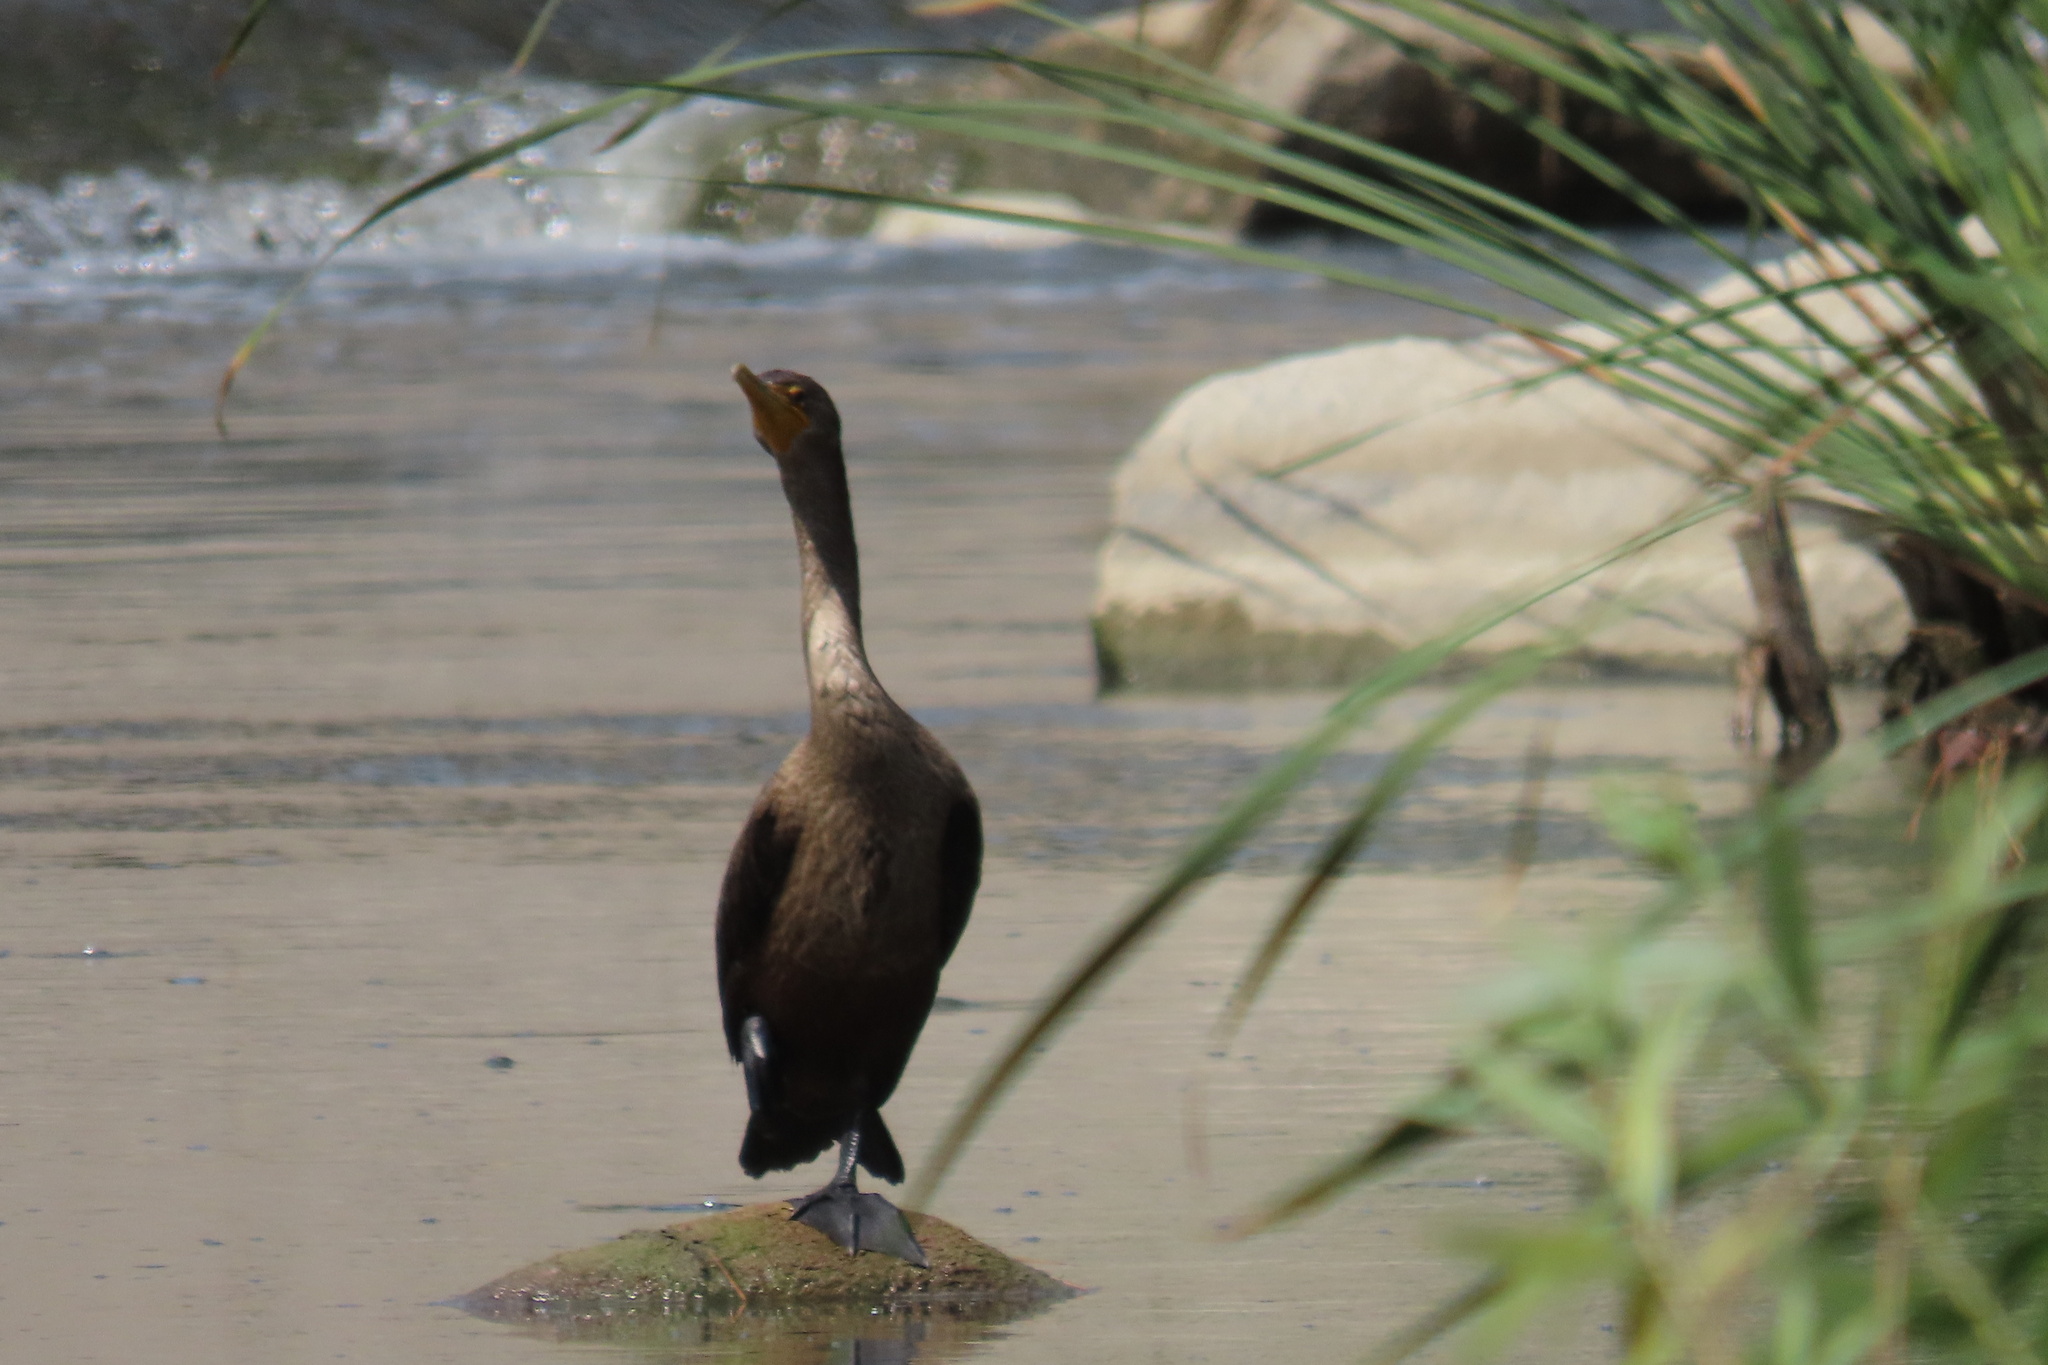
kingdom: Animalia
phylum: Chordata
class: Aves
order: Suliformes
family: Phalacrocoracidae
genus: Phalacrocorax
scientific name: Phalacrocorax auritus
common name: Double-crested cormorant
